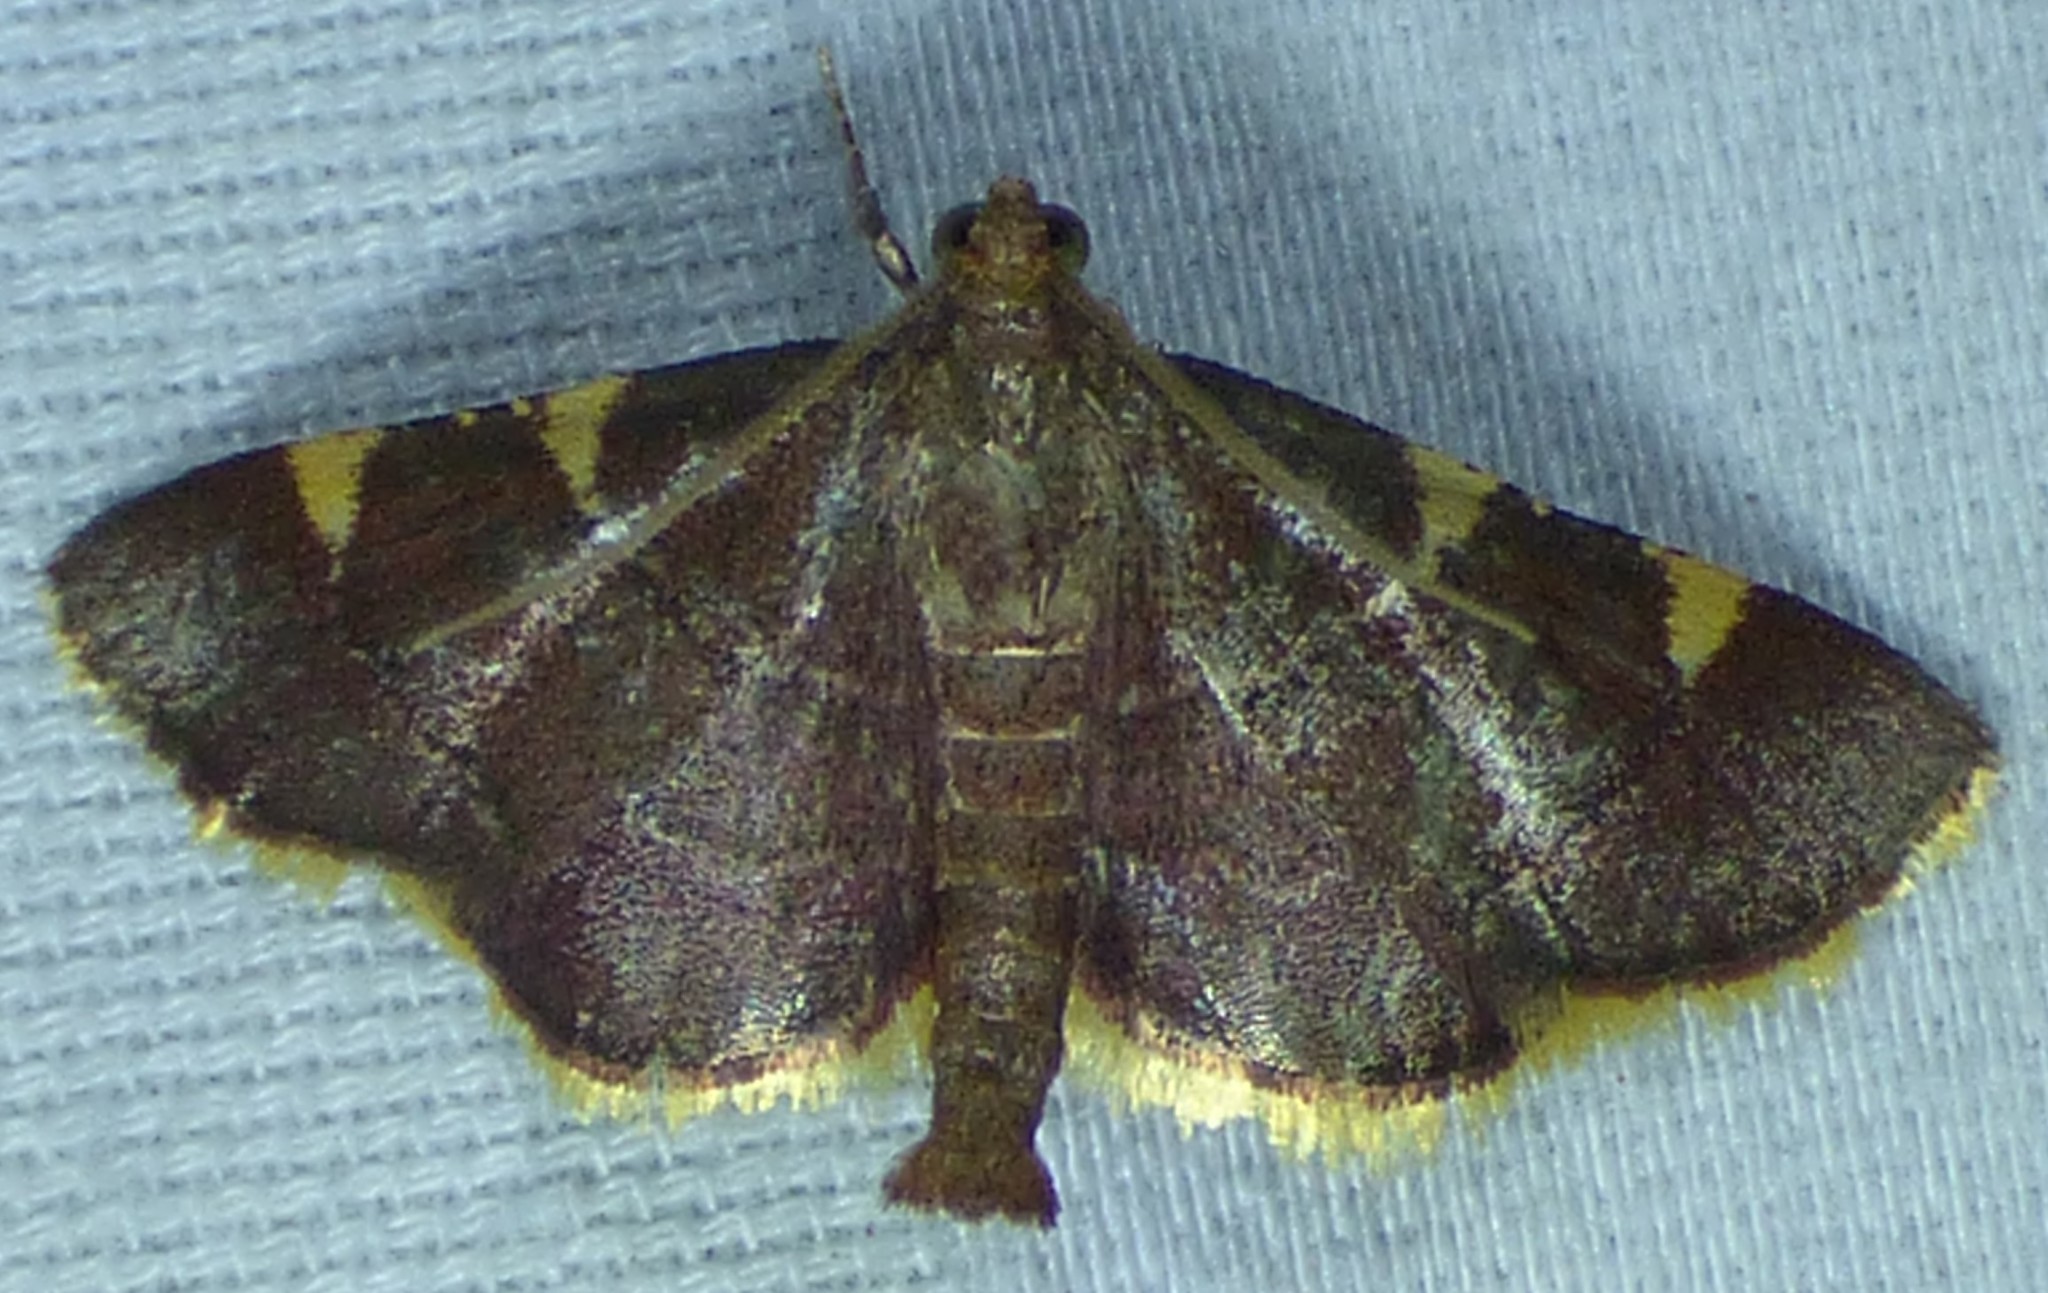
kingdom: Animalia
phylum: Arthropoda
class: Insecta
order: Lepidoptera
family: Pyralidae
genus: Hypsopygia
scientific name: Hypsopygia olinalis
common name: Yellow-fringed dolichomia moth
